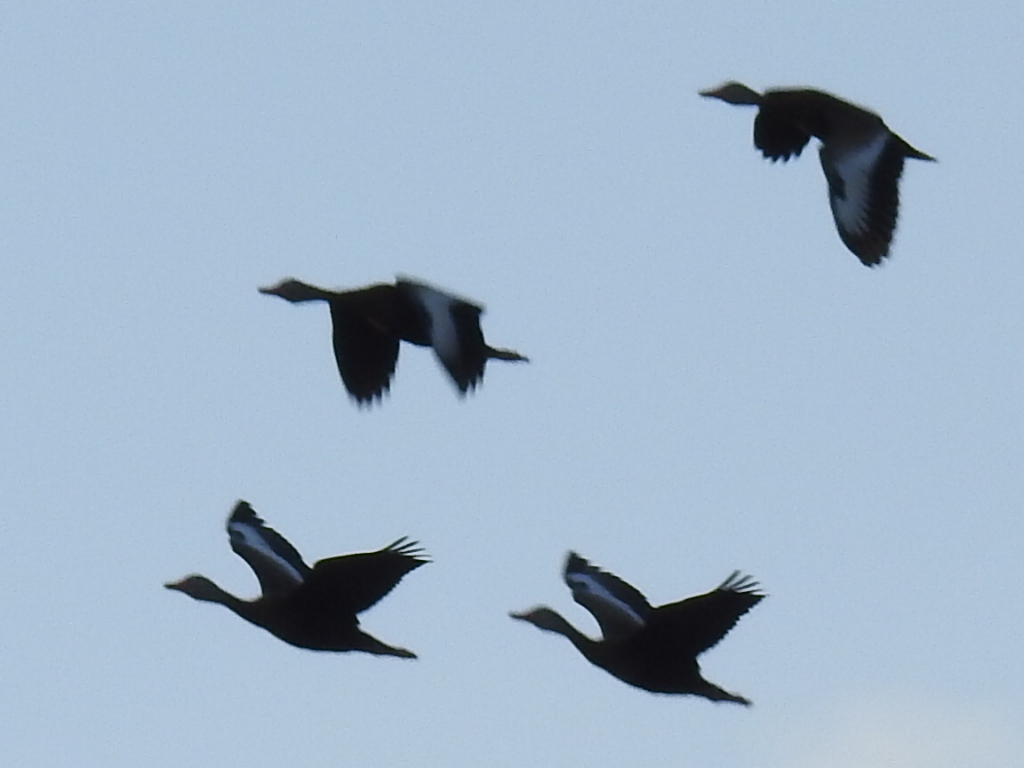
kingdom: Animalia
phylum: Chordata
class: Aves
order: Anseriformes
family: Anatidae
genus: Dendrocygna
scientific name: Dendrocygna autumnalis
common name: Black-bellied whistling duck
